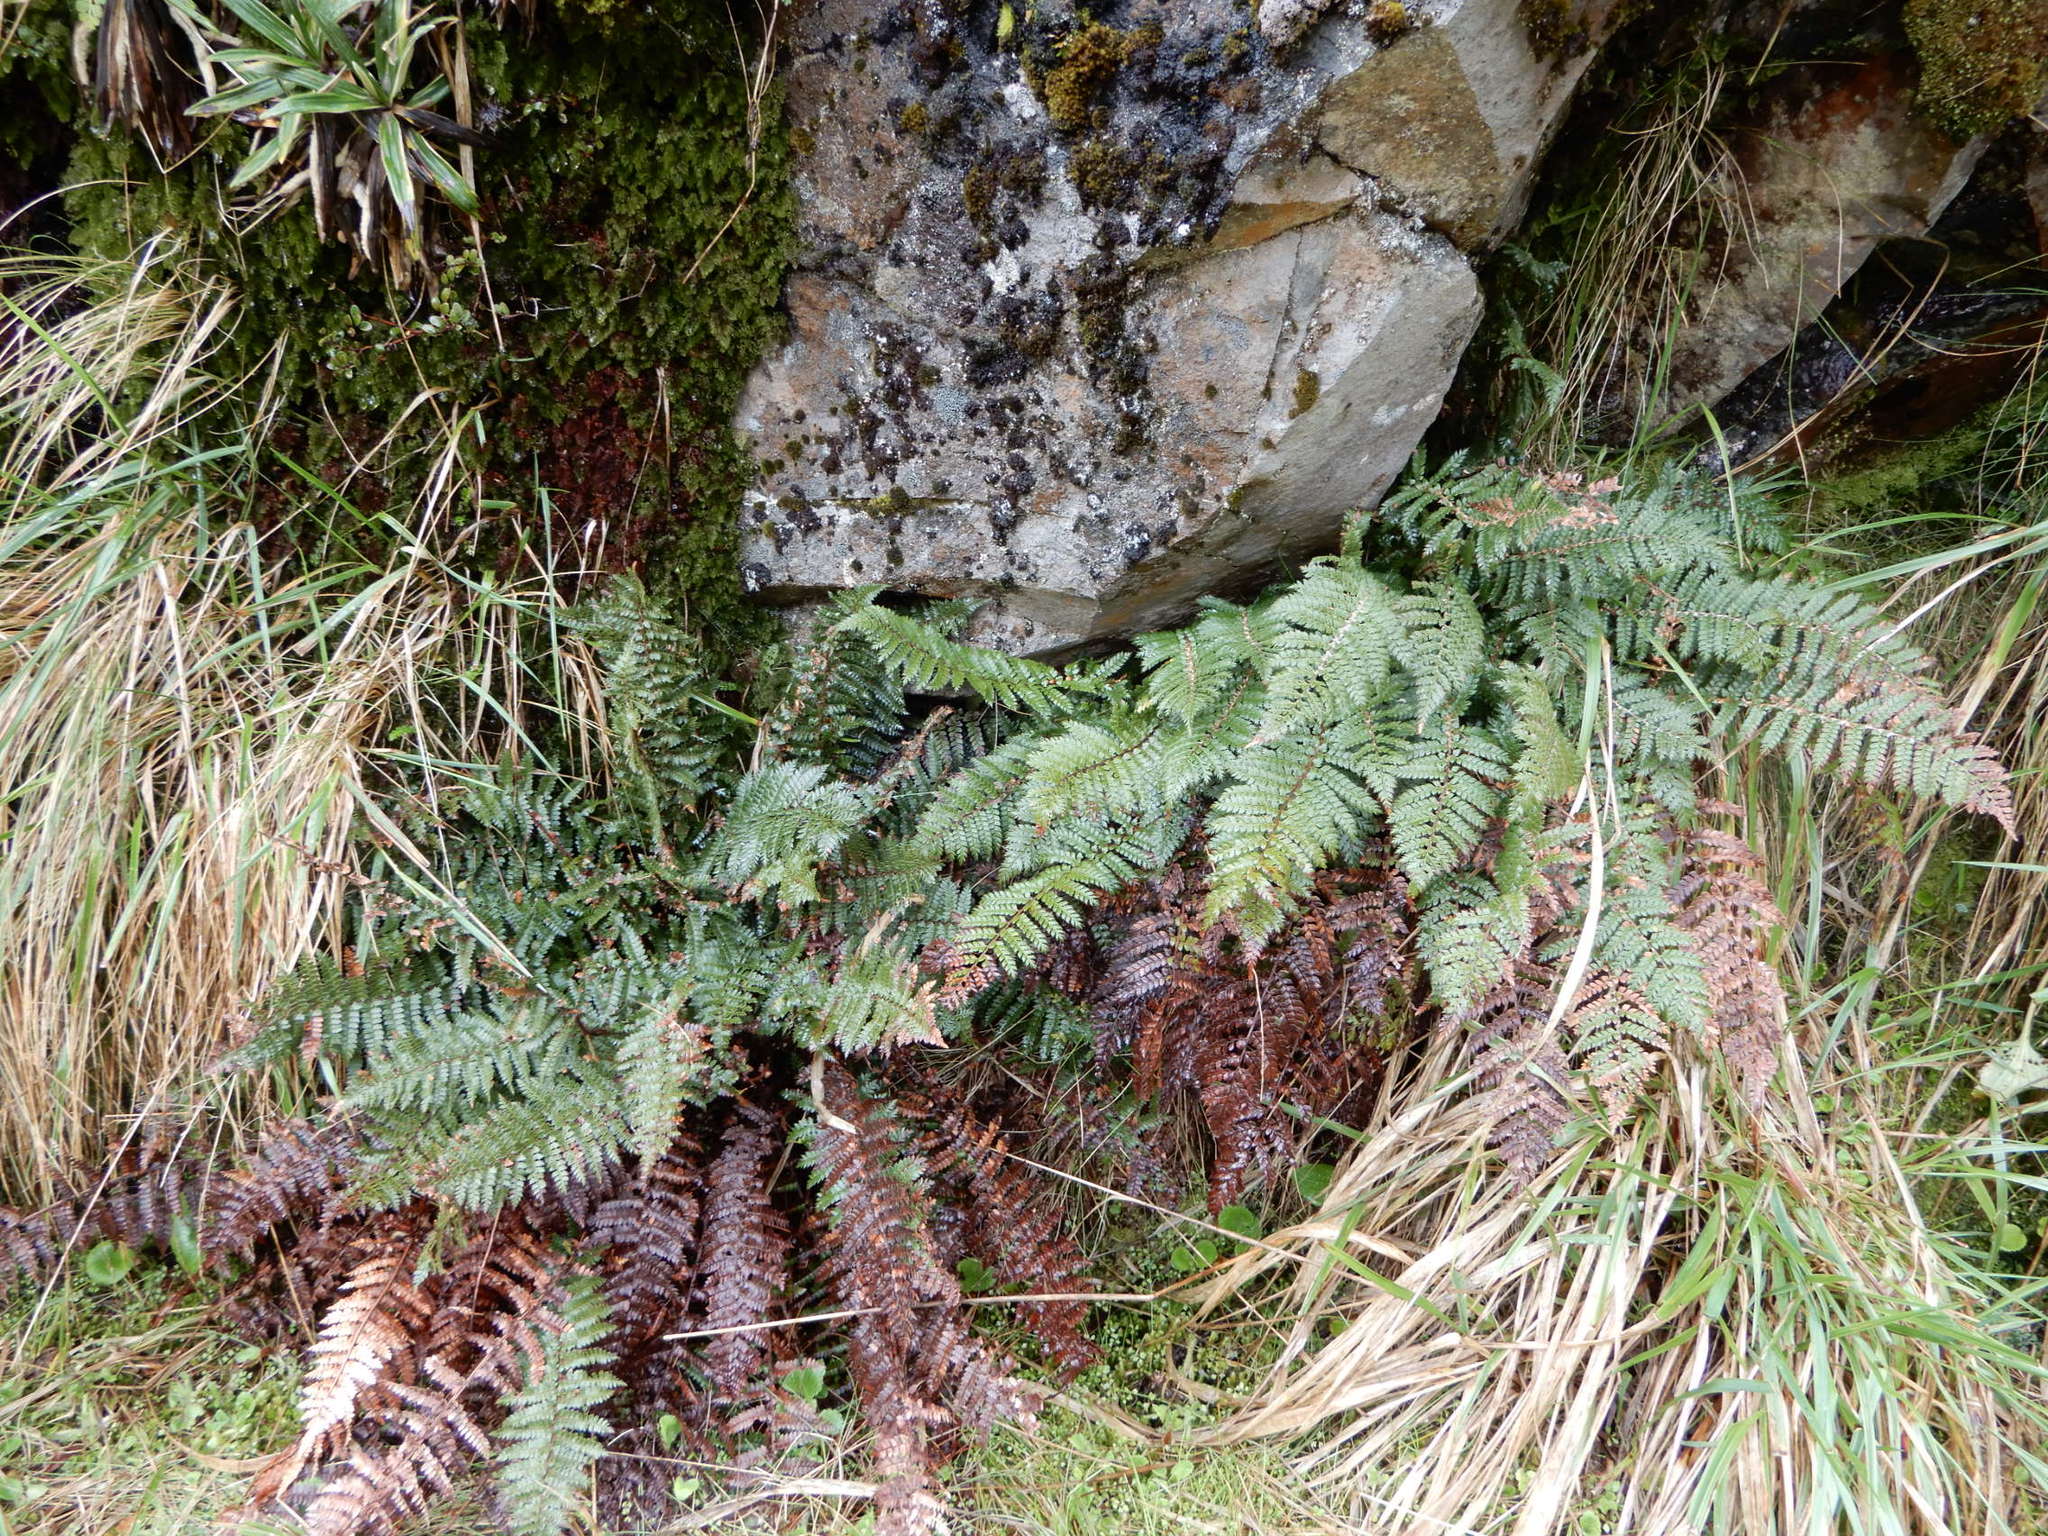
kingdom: Plantae
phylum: Tracheophyta
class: Polypodiopsida
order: Polypodiales
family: Dryopteridaceae
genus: Polystichum
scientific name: Polystichum vestitum
